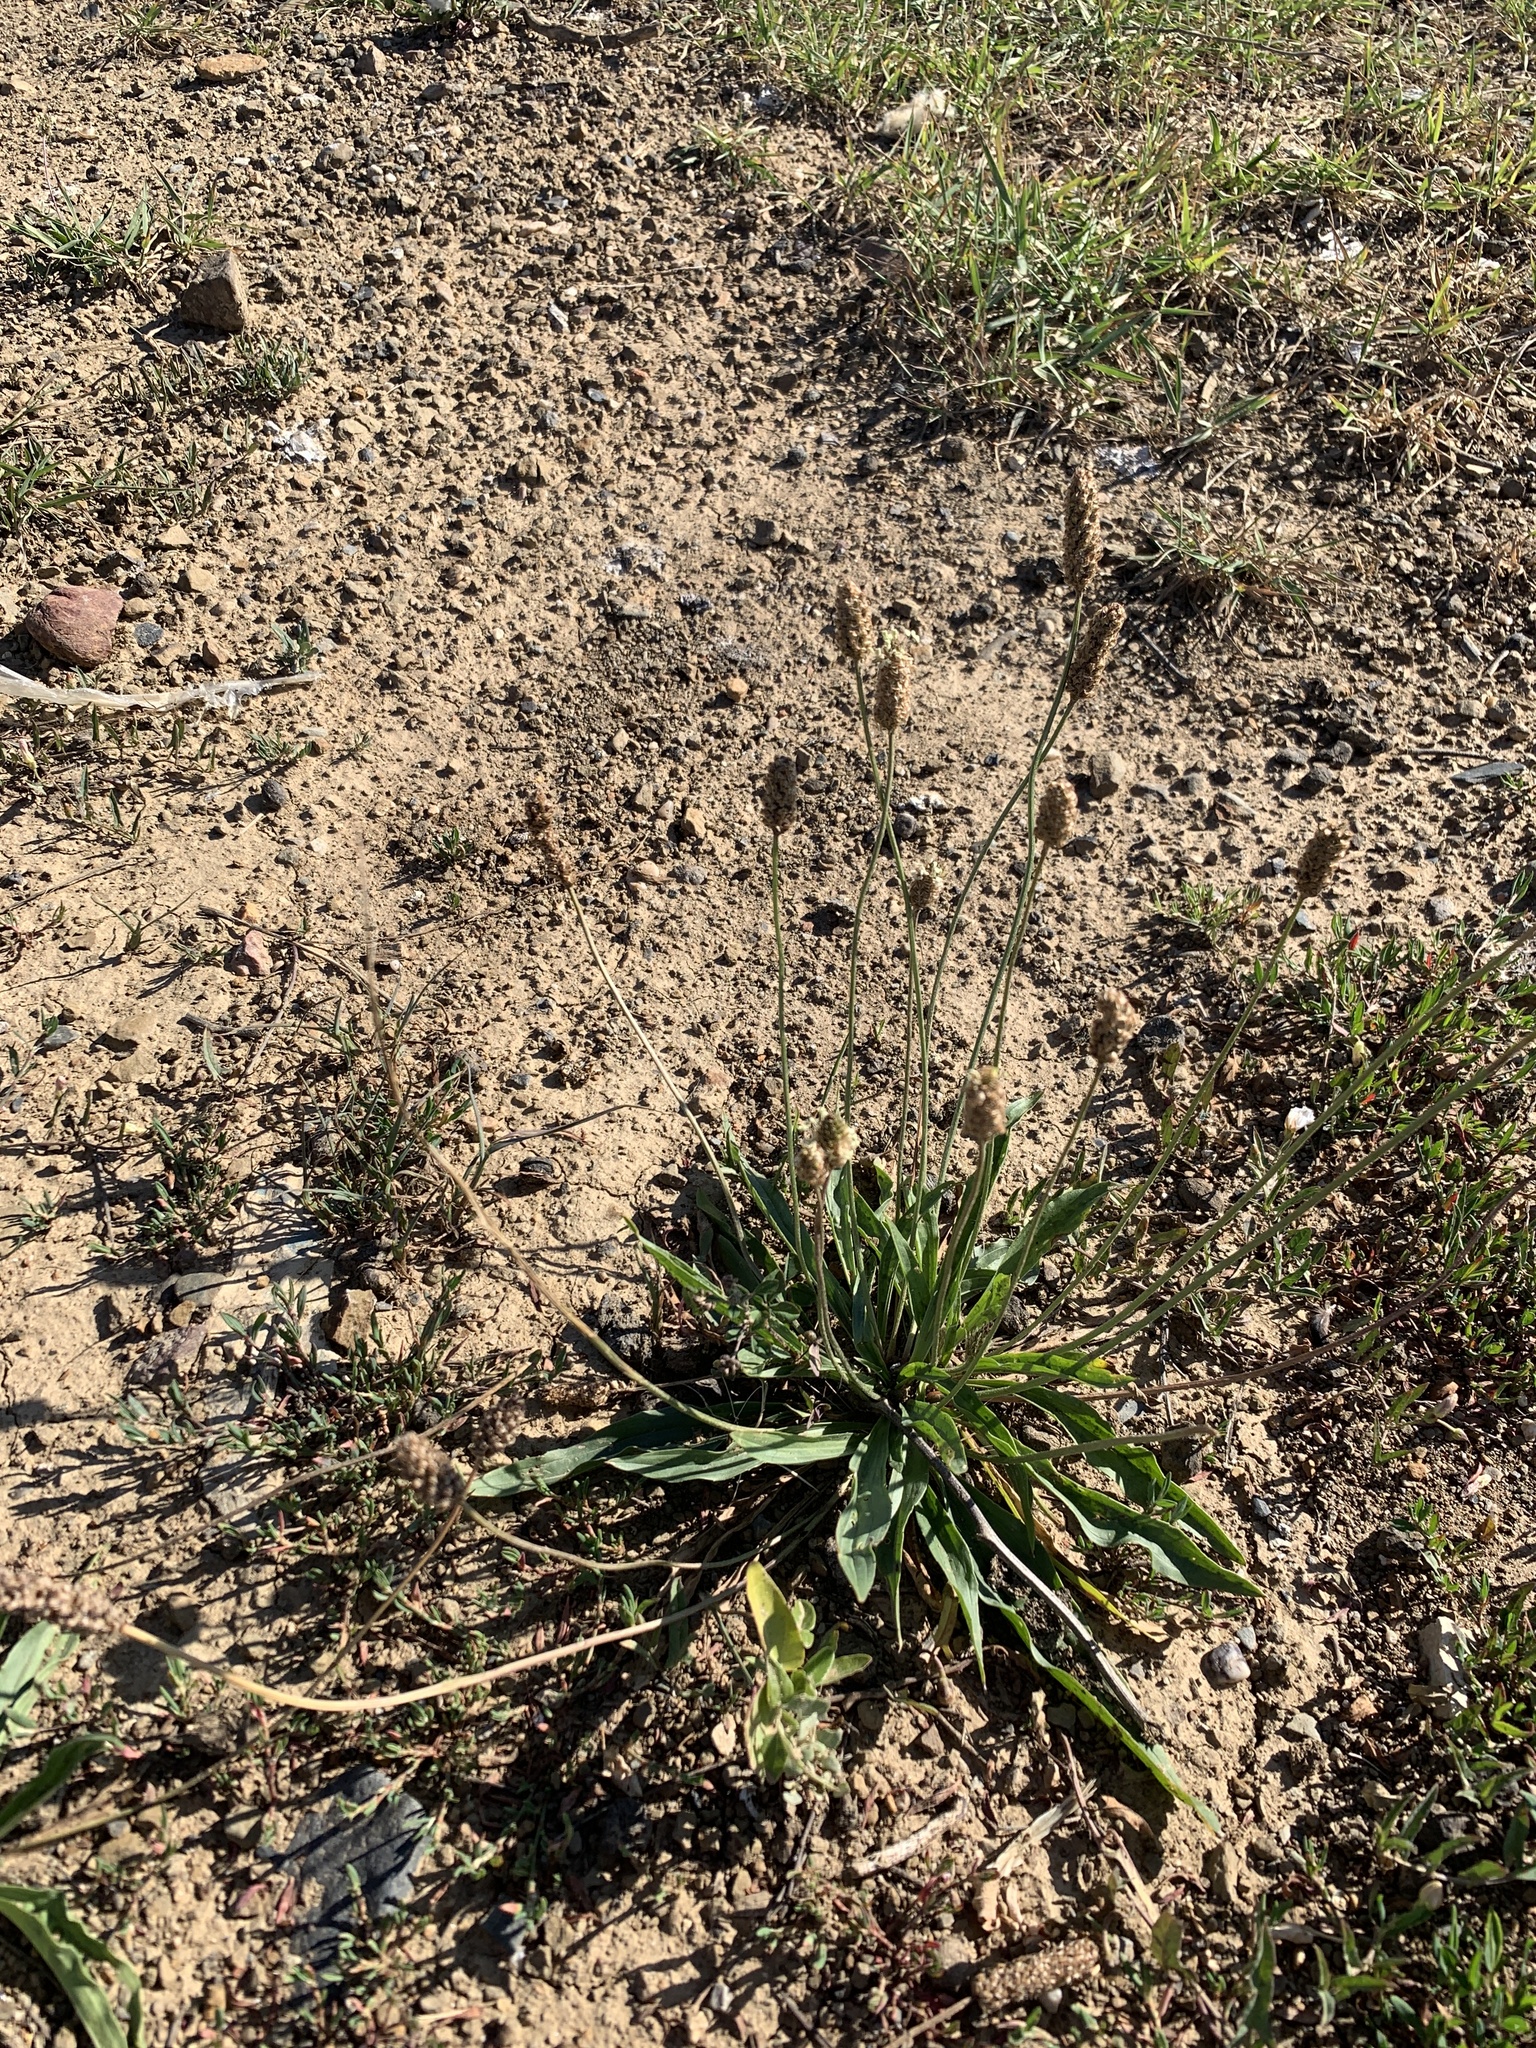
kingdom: Plantae
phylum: Tracheophyta
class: Magnoliopsida
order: Lamiales
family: Plantaginaceae
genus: Plantago
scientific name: Plantago lanceolata
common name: Ribwort plantain
